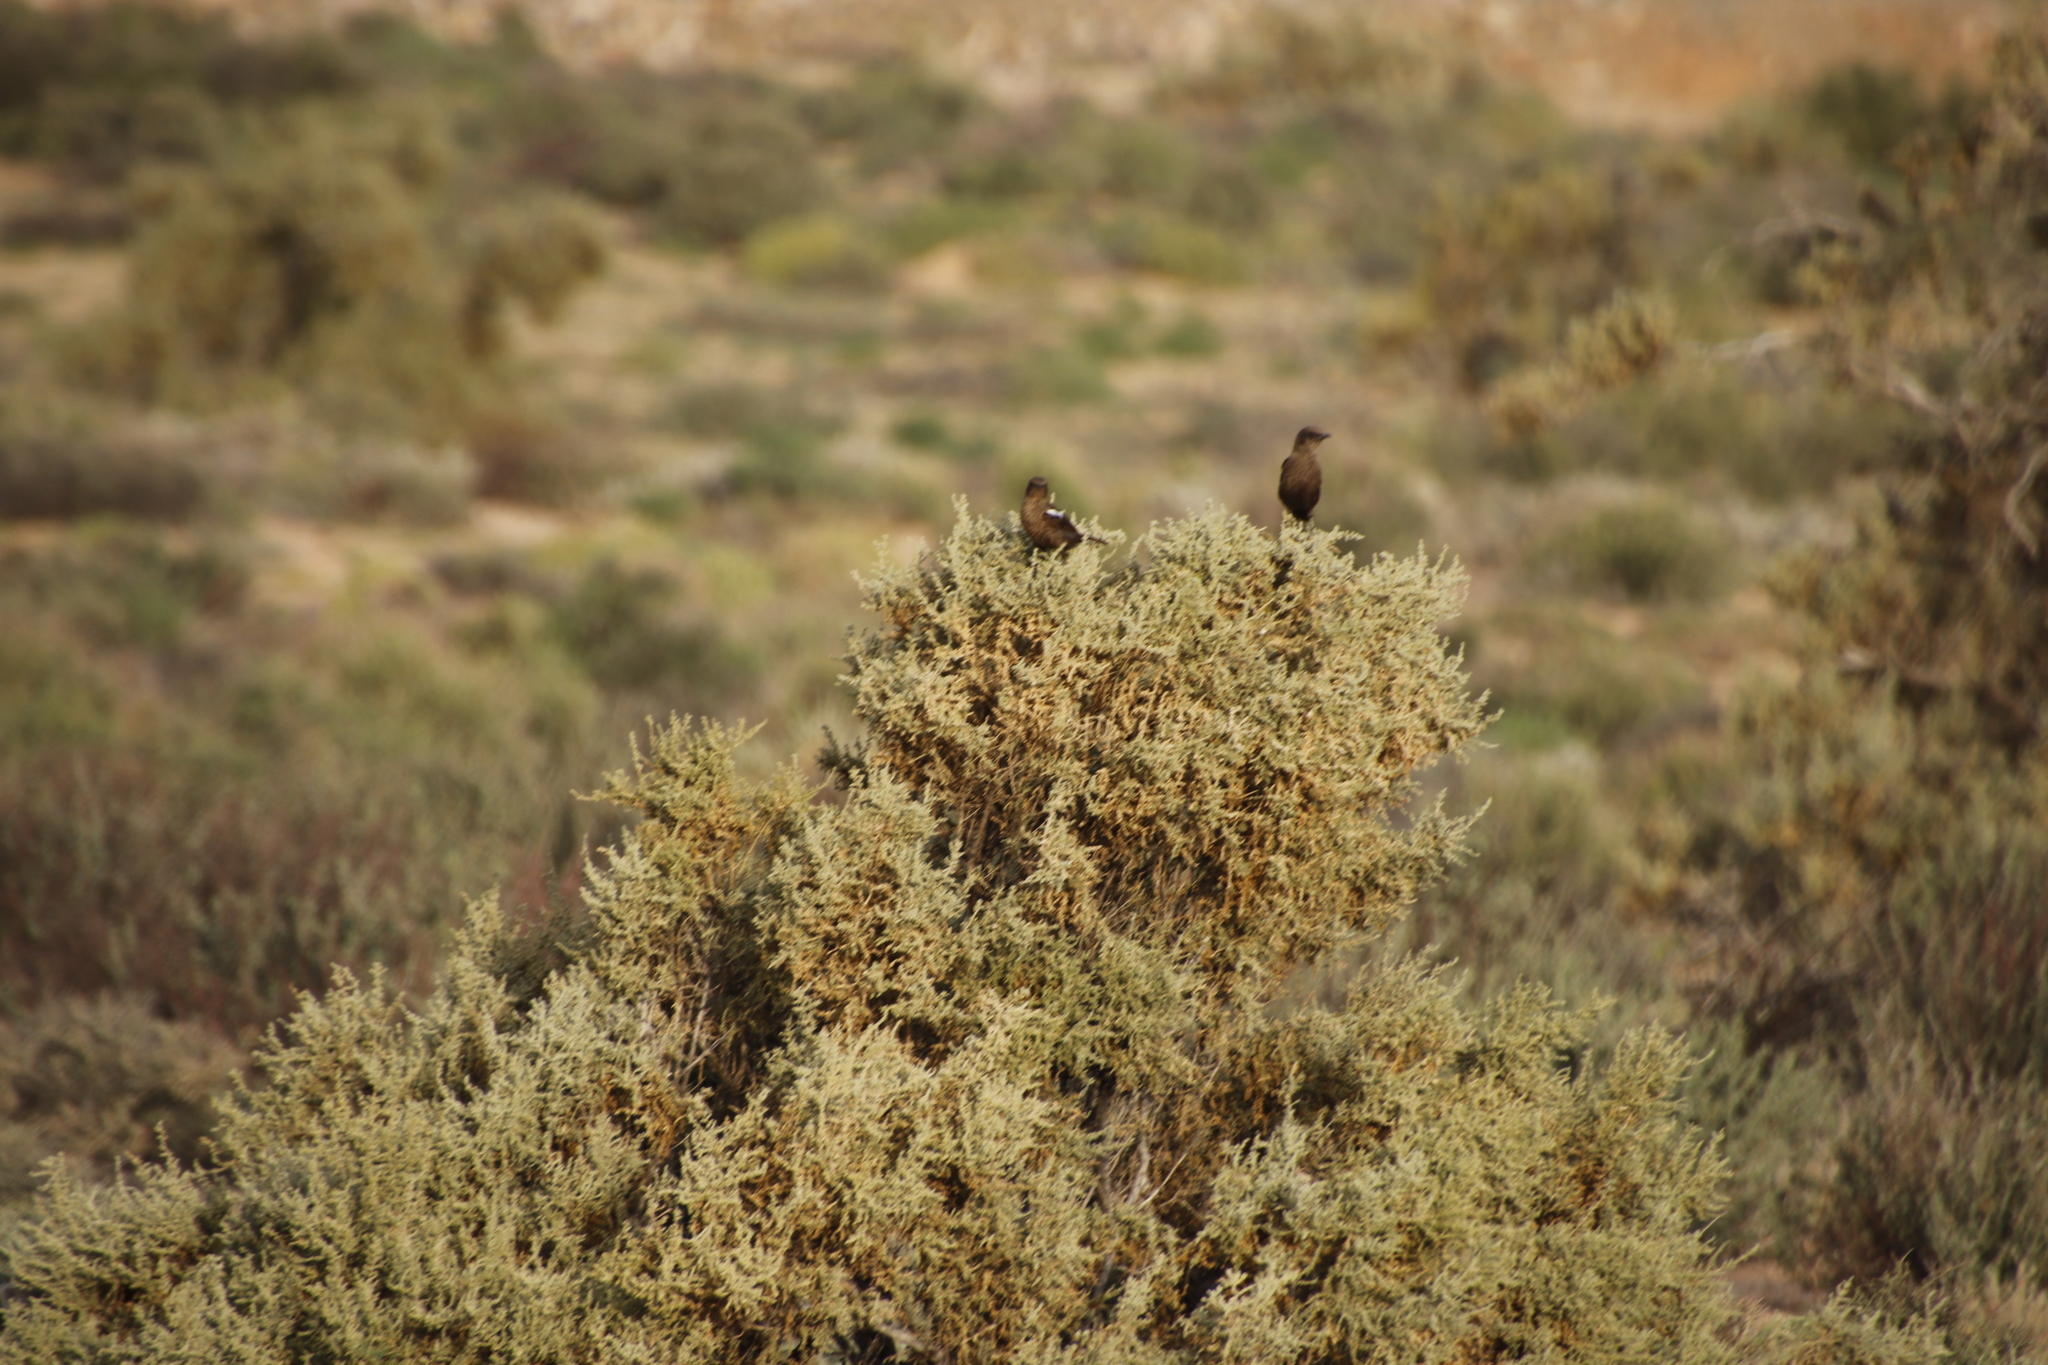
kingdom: Animalia
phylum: Chordata
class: Aves
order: Passeriformes
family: Muscicapidae
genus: Myrmecocichla
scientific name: Myrmecocichla formicivora
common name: Ant-eating chat
